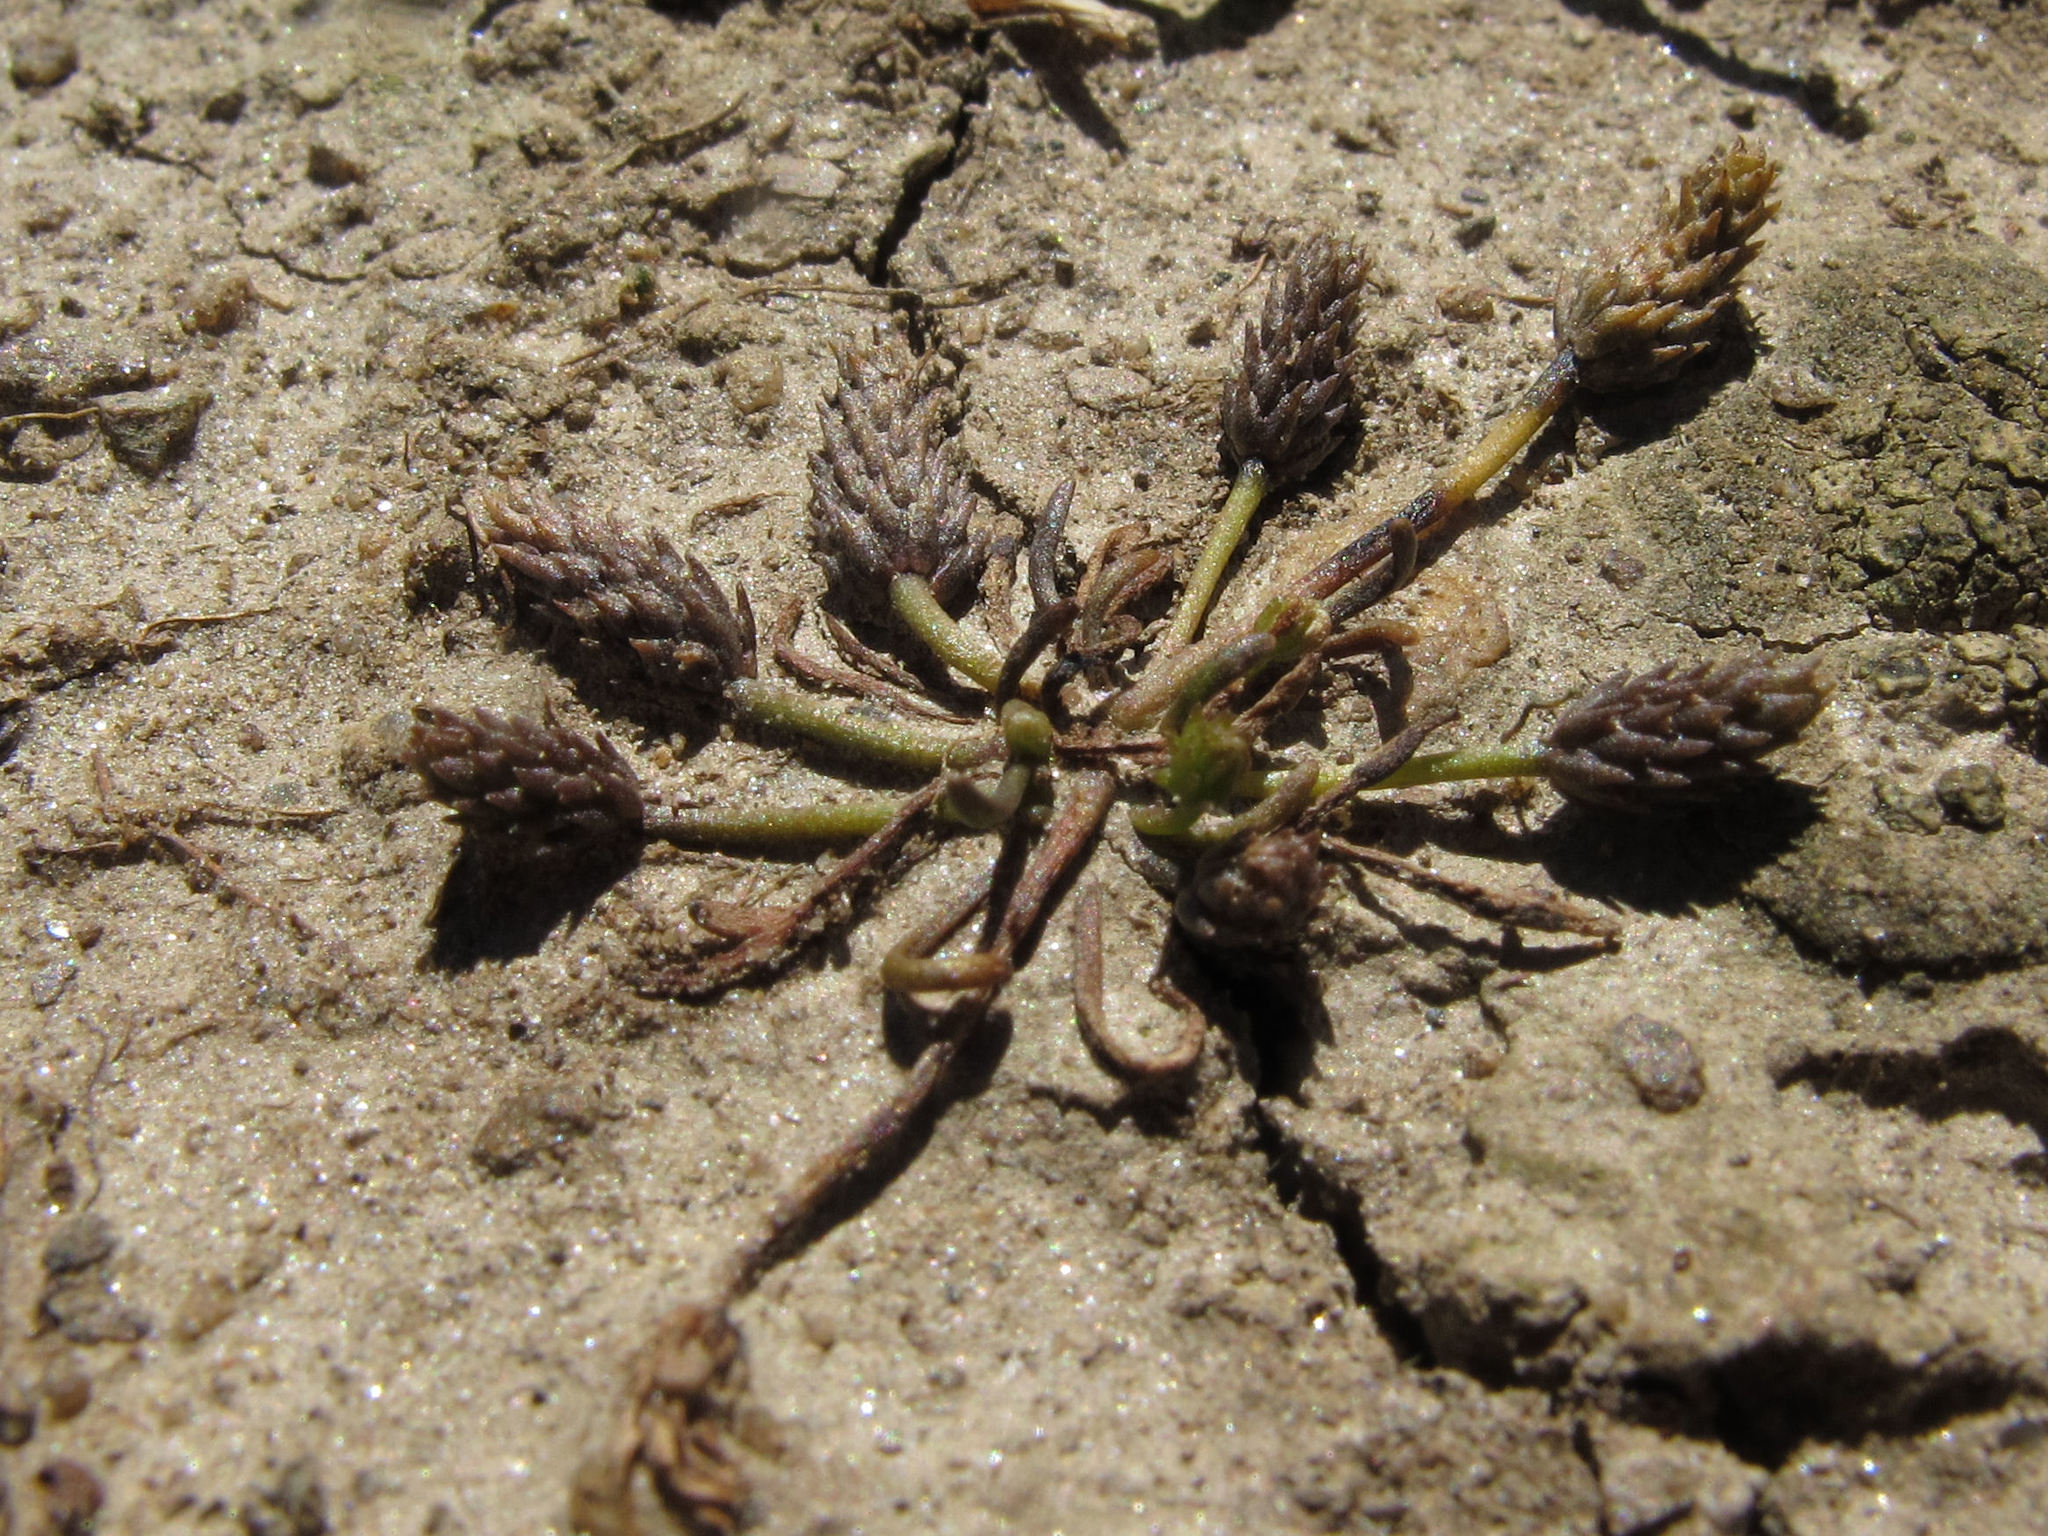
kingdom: Plantae
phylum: Tracheophyta
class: Magnoliopsida
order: Ranunculales
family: Ranunculaceae
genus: Myosurus
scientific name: Myosurus minimus
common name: Mousetail
